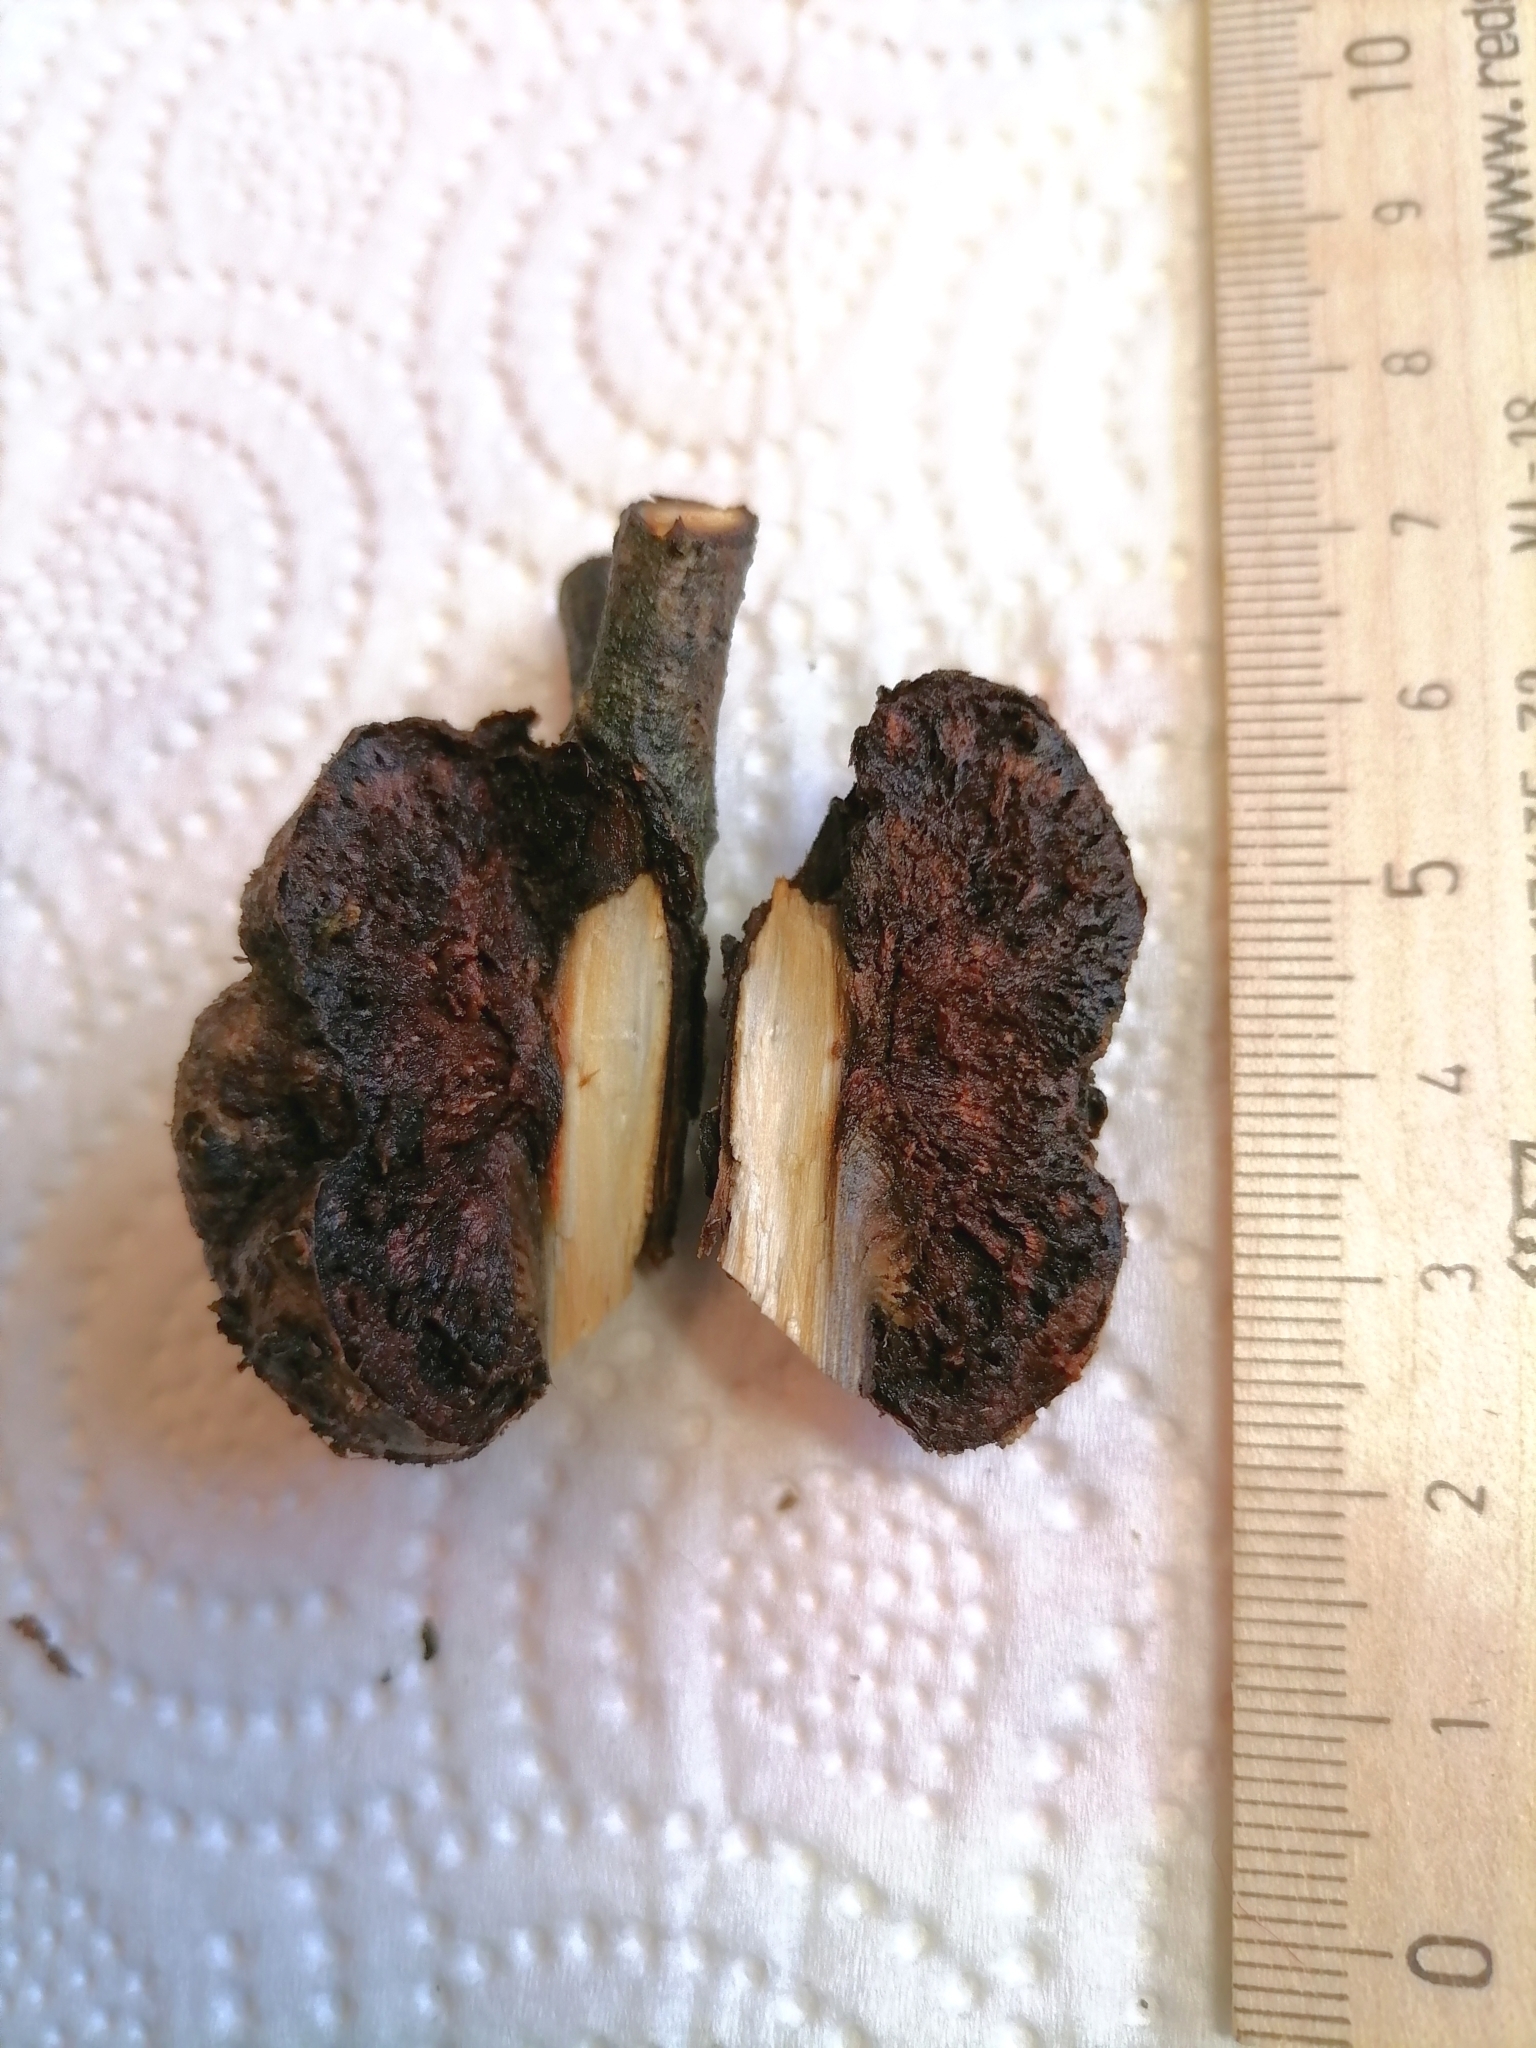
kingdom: Bacteria
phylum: Proteobacteria
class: Alphaproteobacteria
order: Rhizobiales
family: Rhizobiaceae
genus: Rhizobium
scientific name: Rhizobium Agrobacterium radiobacter
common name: Bacterial crown gall
